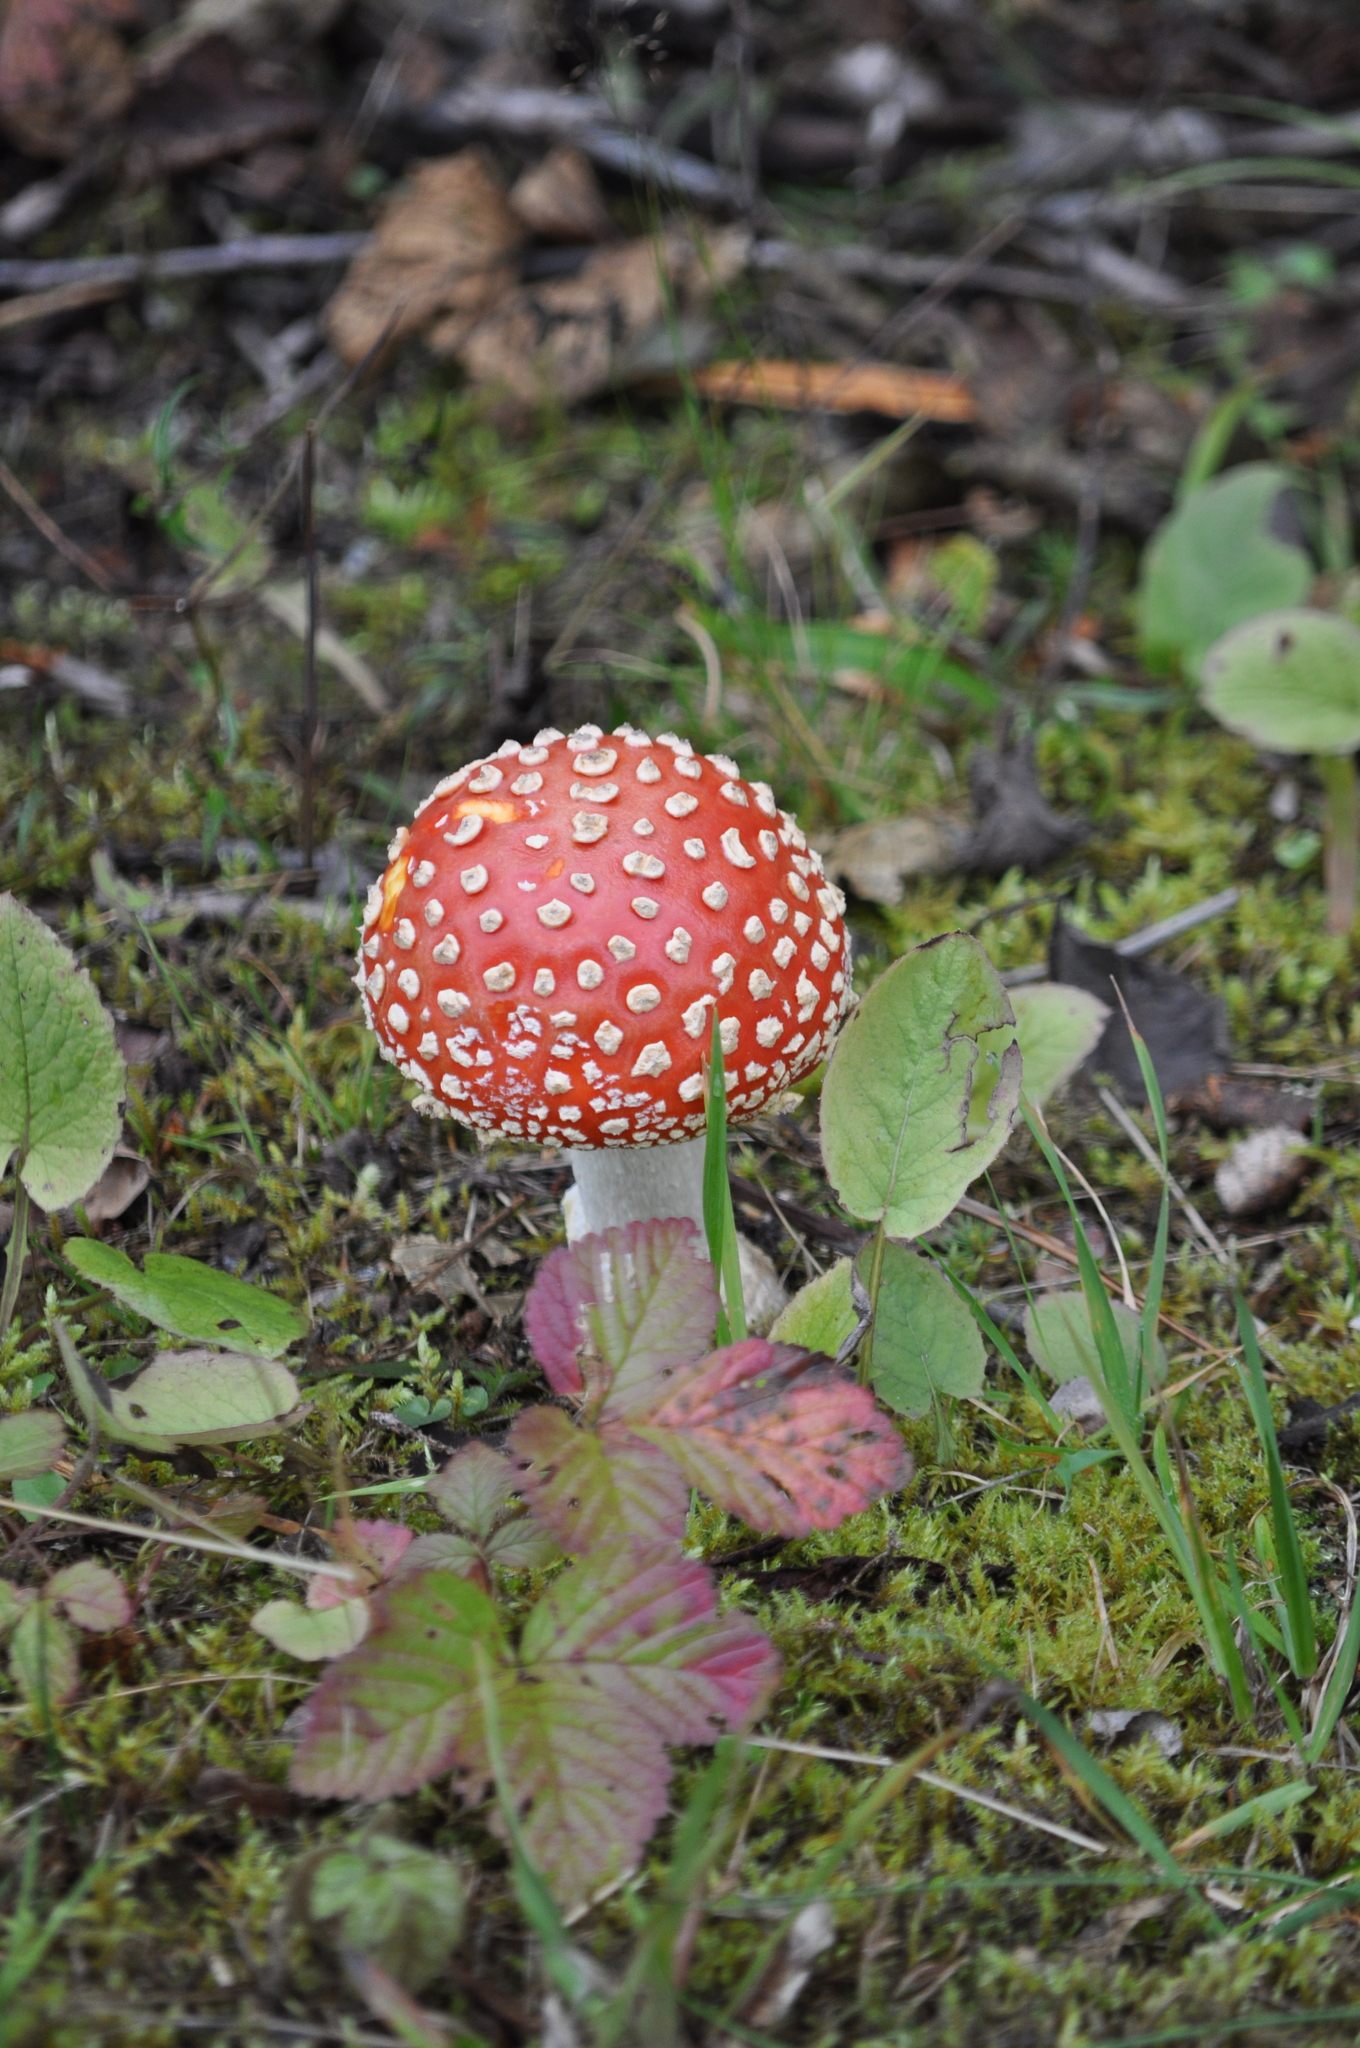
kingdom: Fungi
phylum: Basidiomycota
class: Agaricomycetes
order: Agaricales
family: Amanitaceae
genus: Amanita
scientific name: Amanita muscaria
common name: Fly agaric
